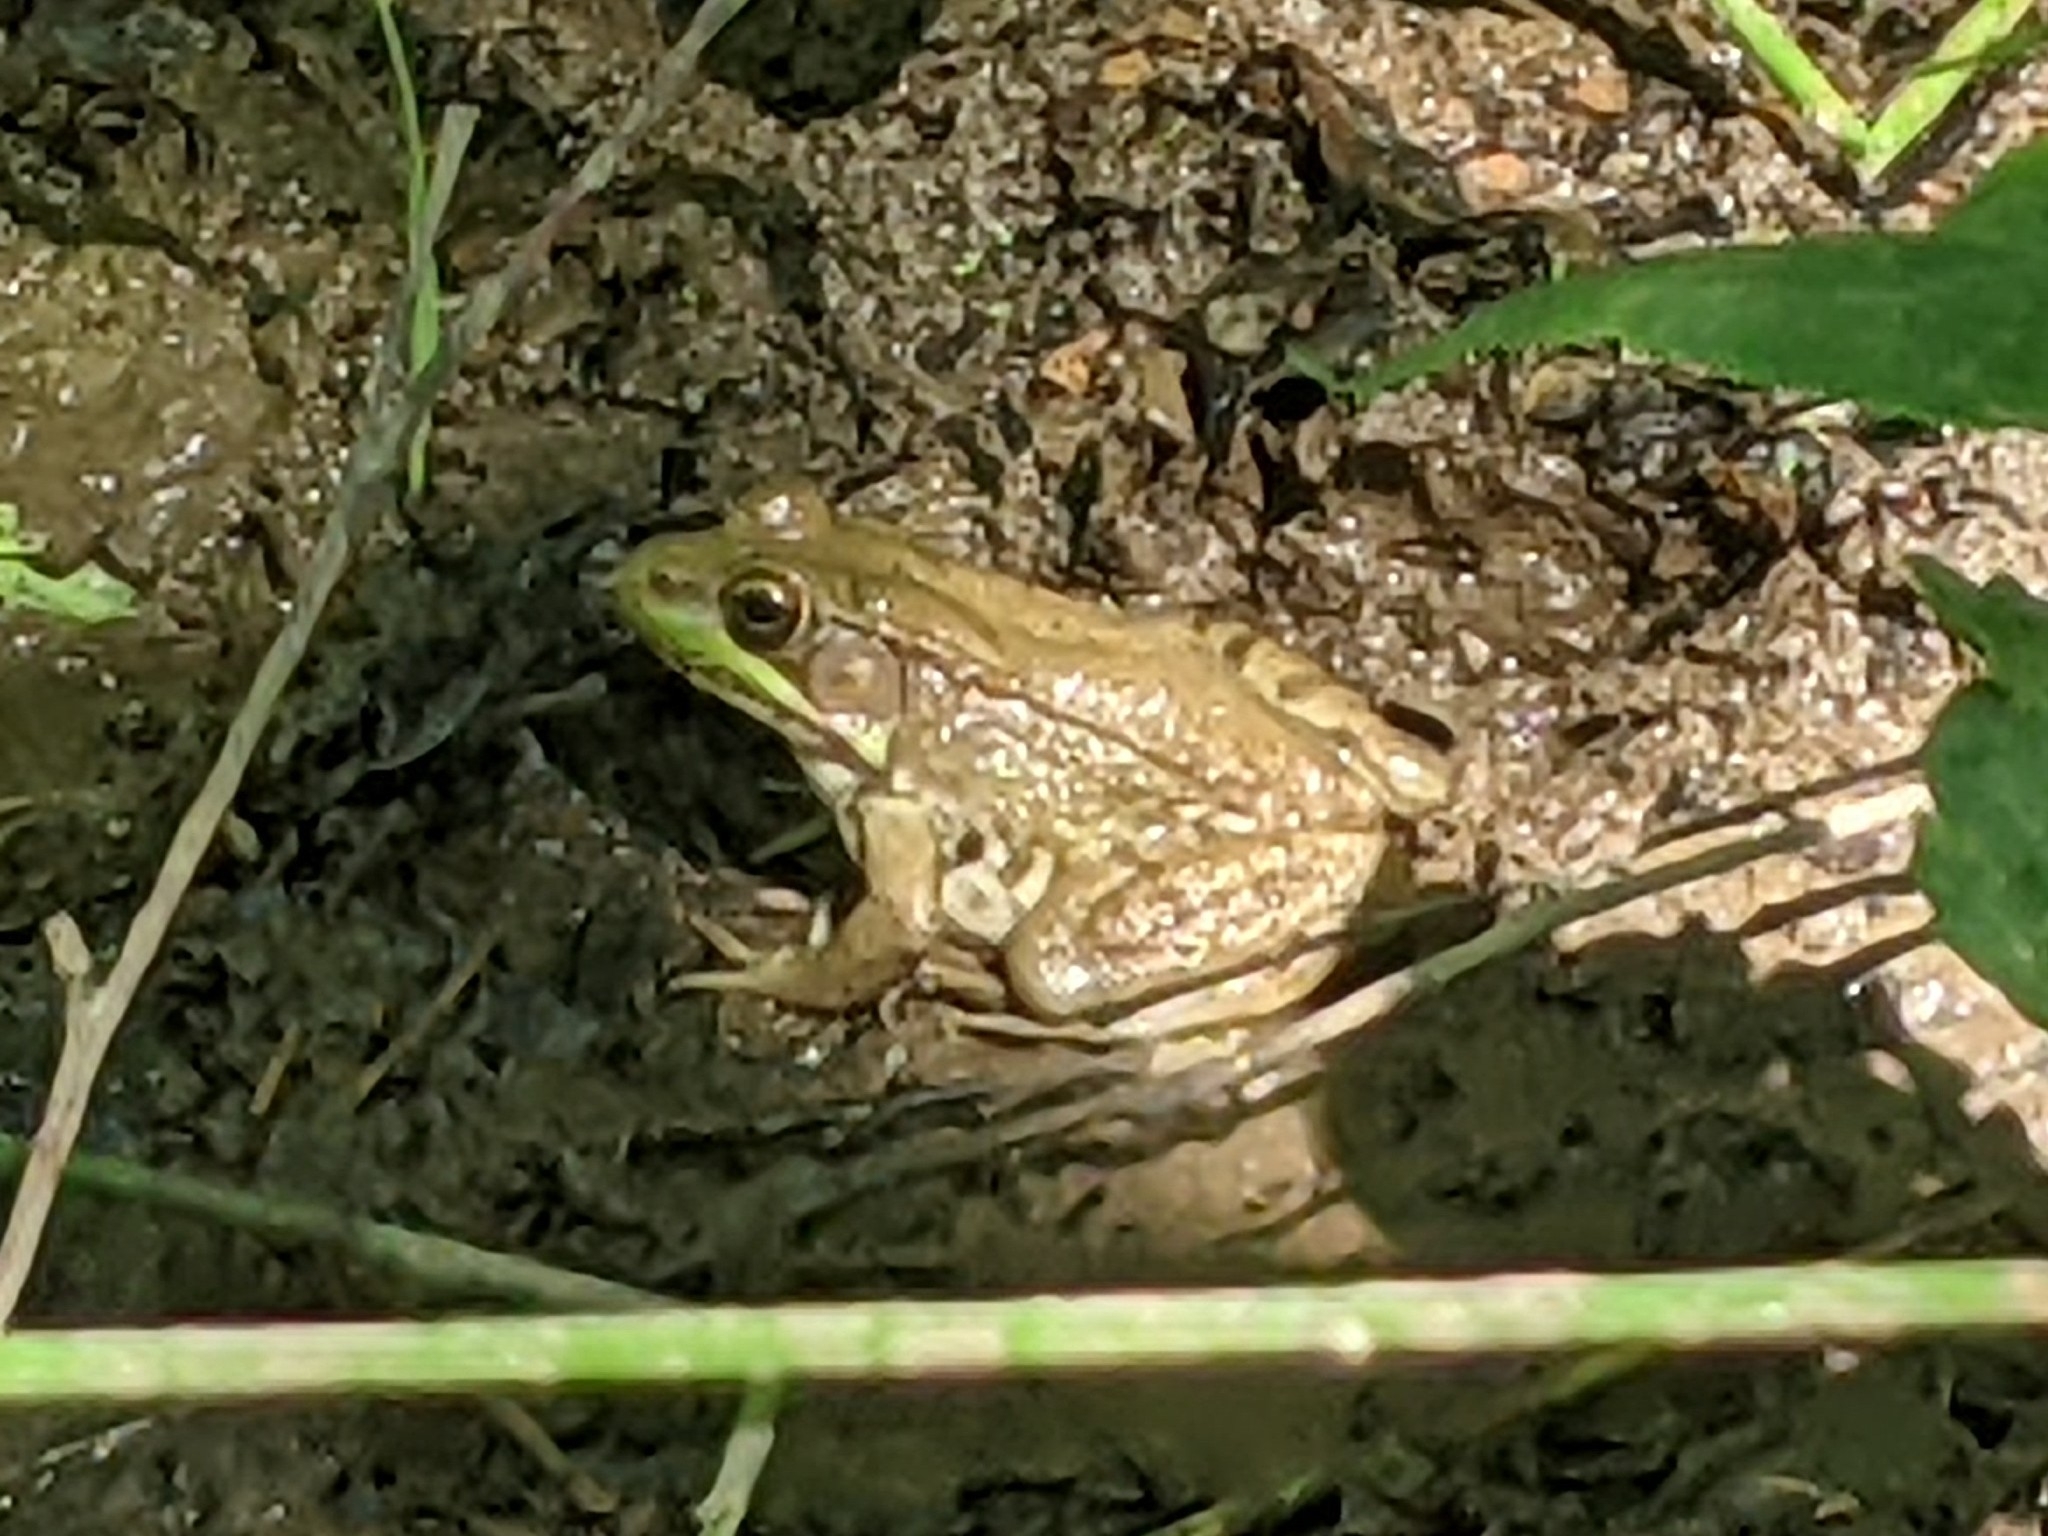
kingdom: Animalia
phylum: Chordata
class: Amphibia
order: Anura
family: Ranidae
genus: Lithobates
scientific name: Lithobates clamitans
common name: Green frog
